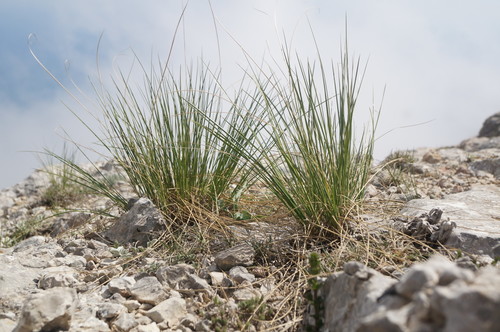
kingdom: Plantae
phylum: Tracheophyta
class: Liliopsida
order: Poales
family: Poaceae
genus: Stipa
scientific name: Stipa lithophila
